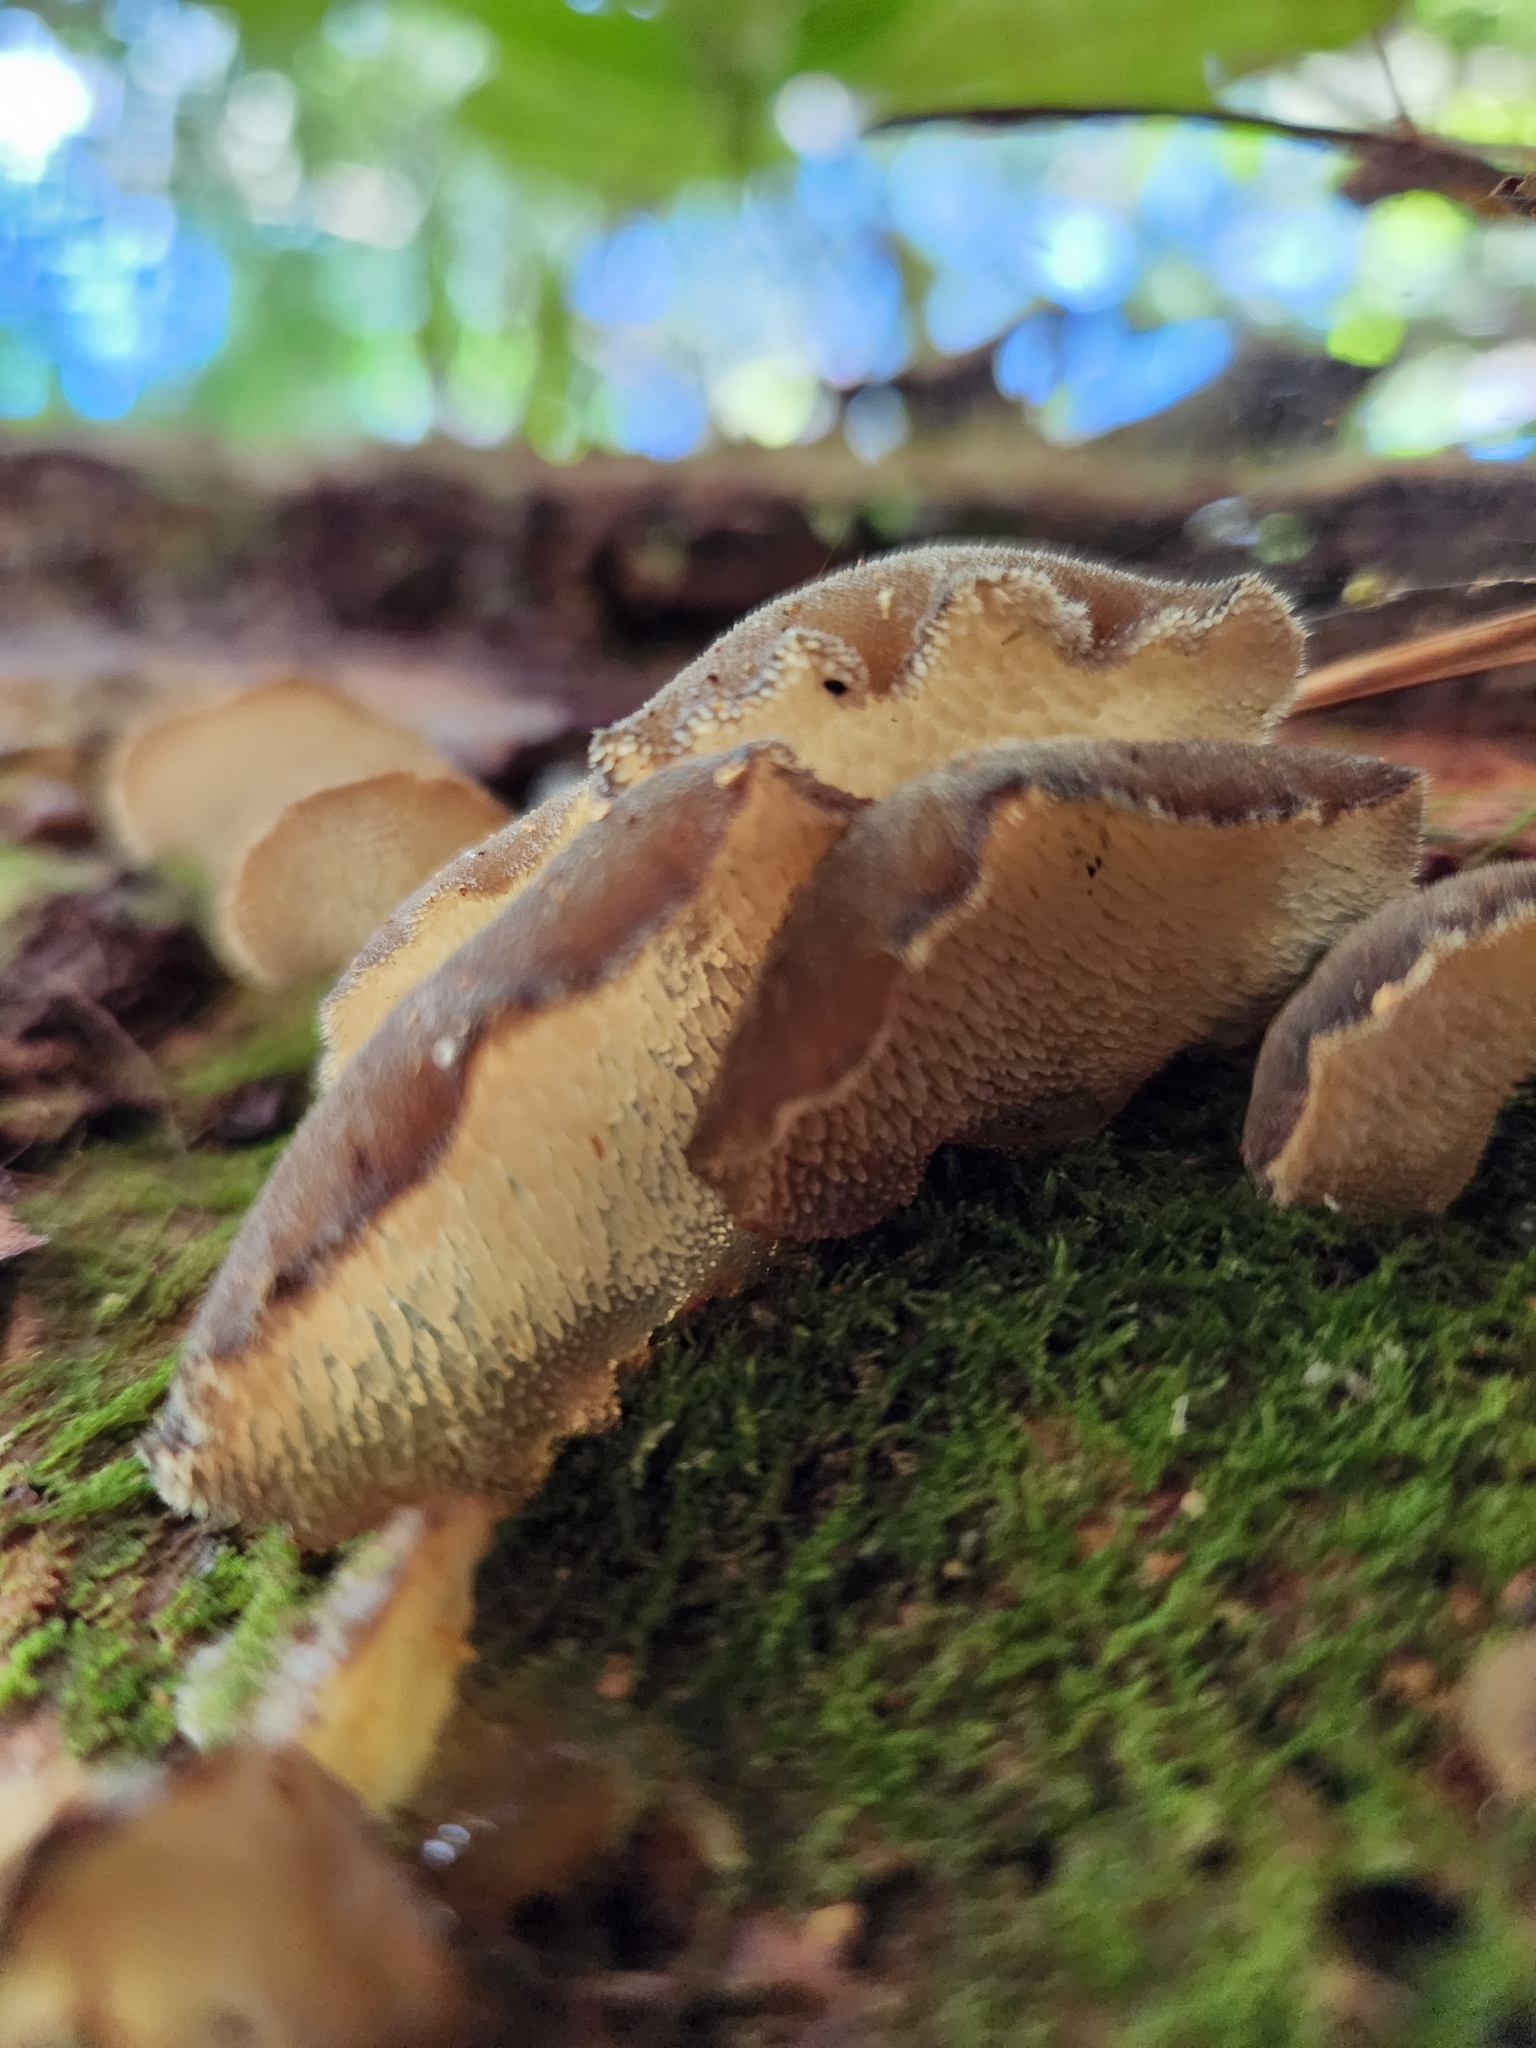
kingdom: Fungi
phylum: Basidiomycota
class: Agaricomycetes
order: Auriculariales
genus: Pseudohydnum
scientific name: Pseudohydnum orbiculare
